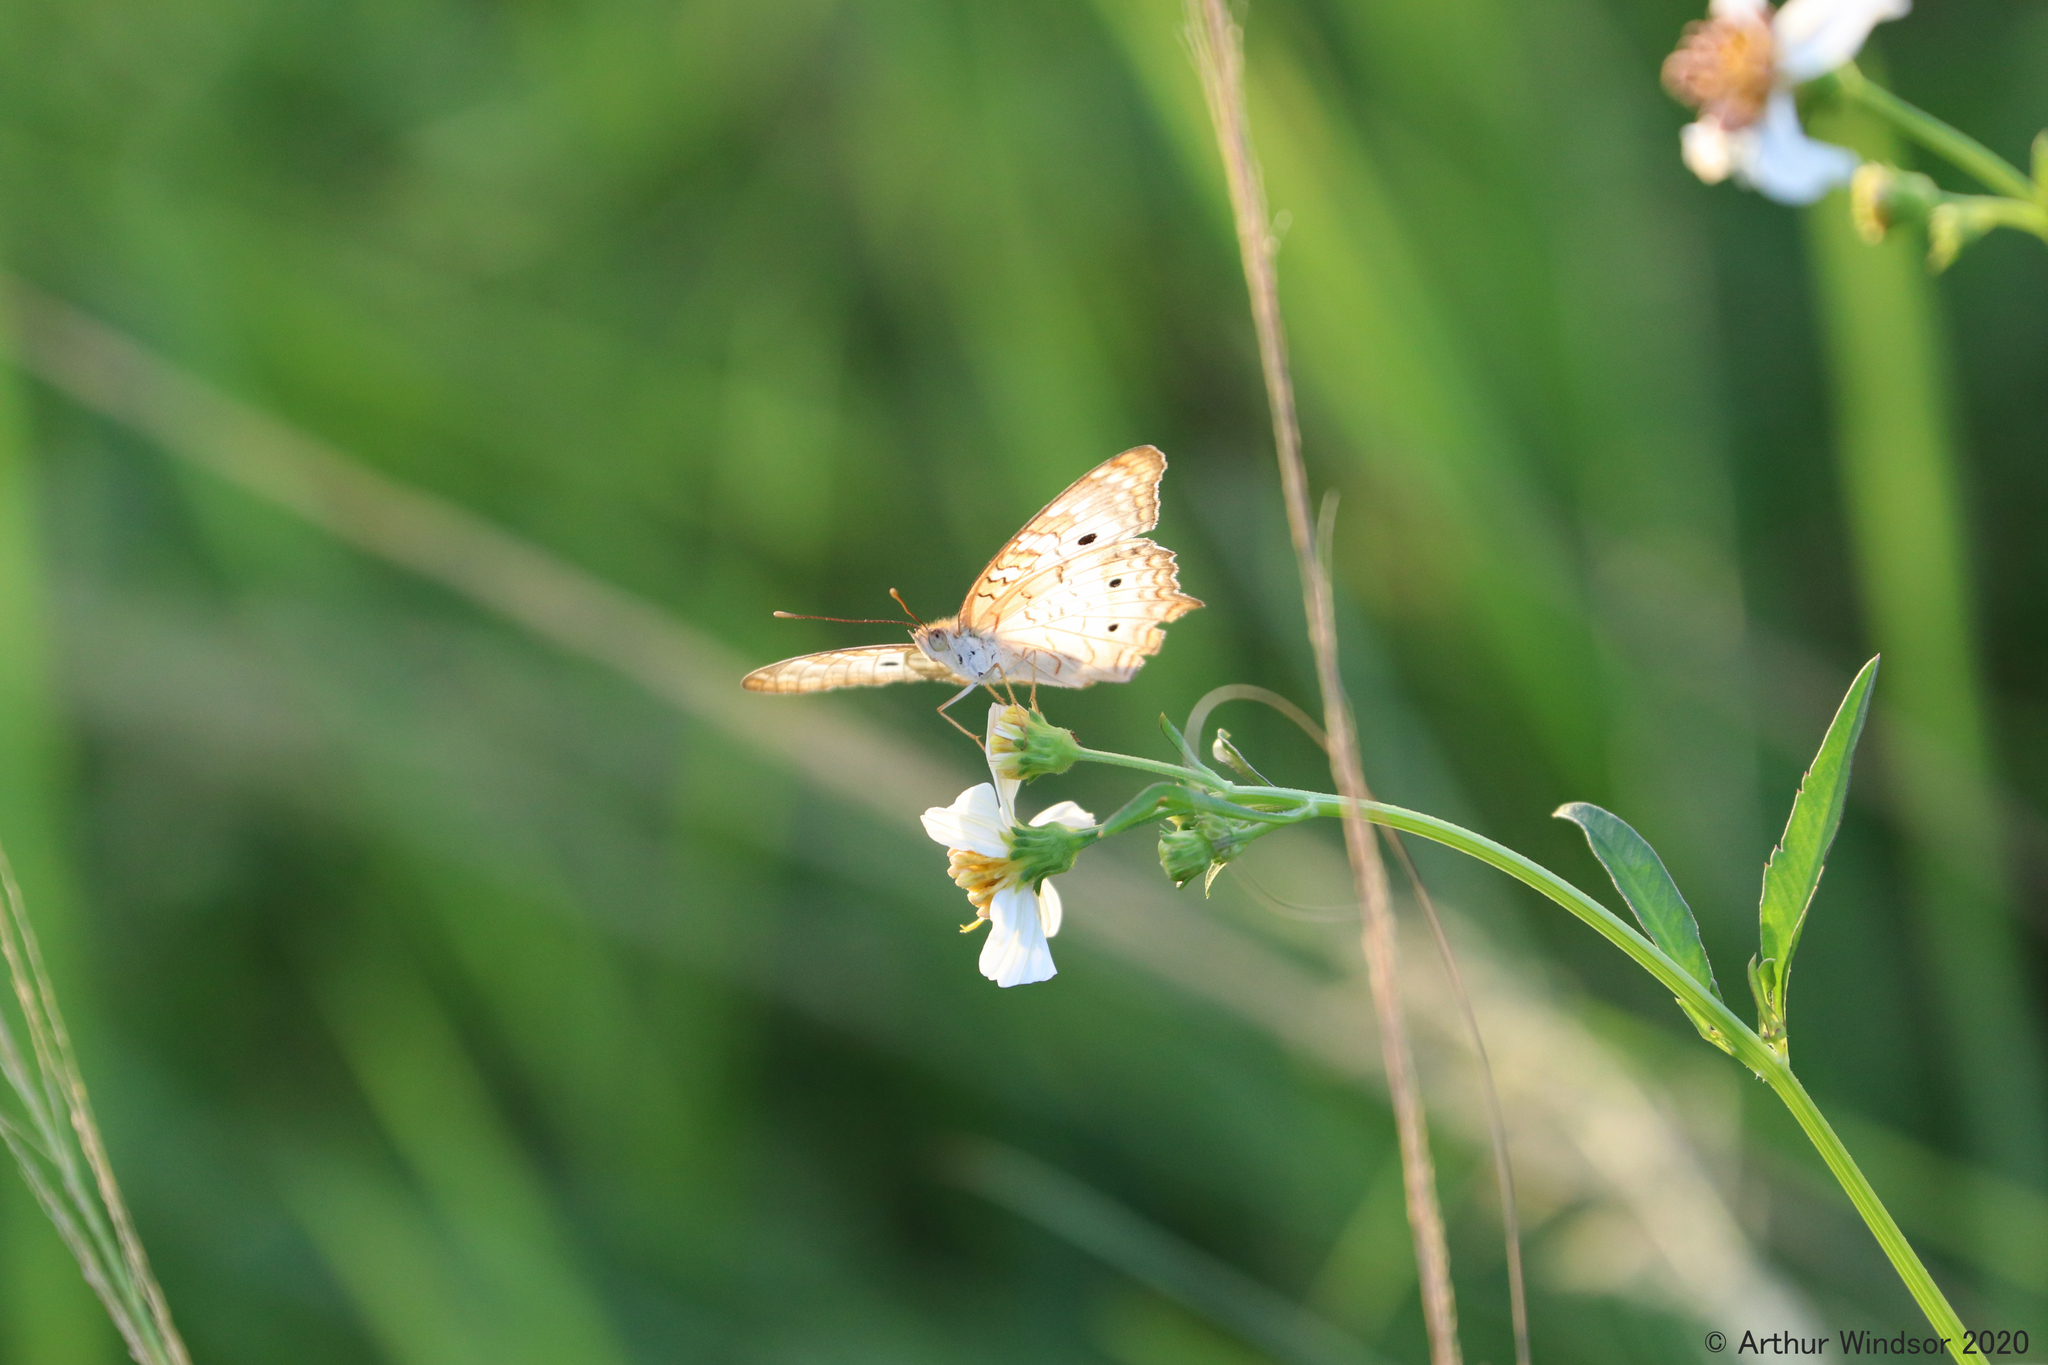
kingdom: Animalia
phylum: Arthropoda
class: Insecta
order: Lepidoptera
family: Nymphalidae
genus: Anartia
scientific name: Anartia jatrophae
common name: White peacock
